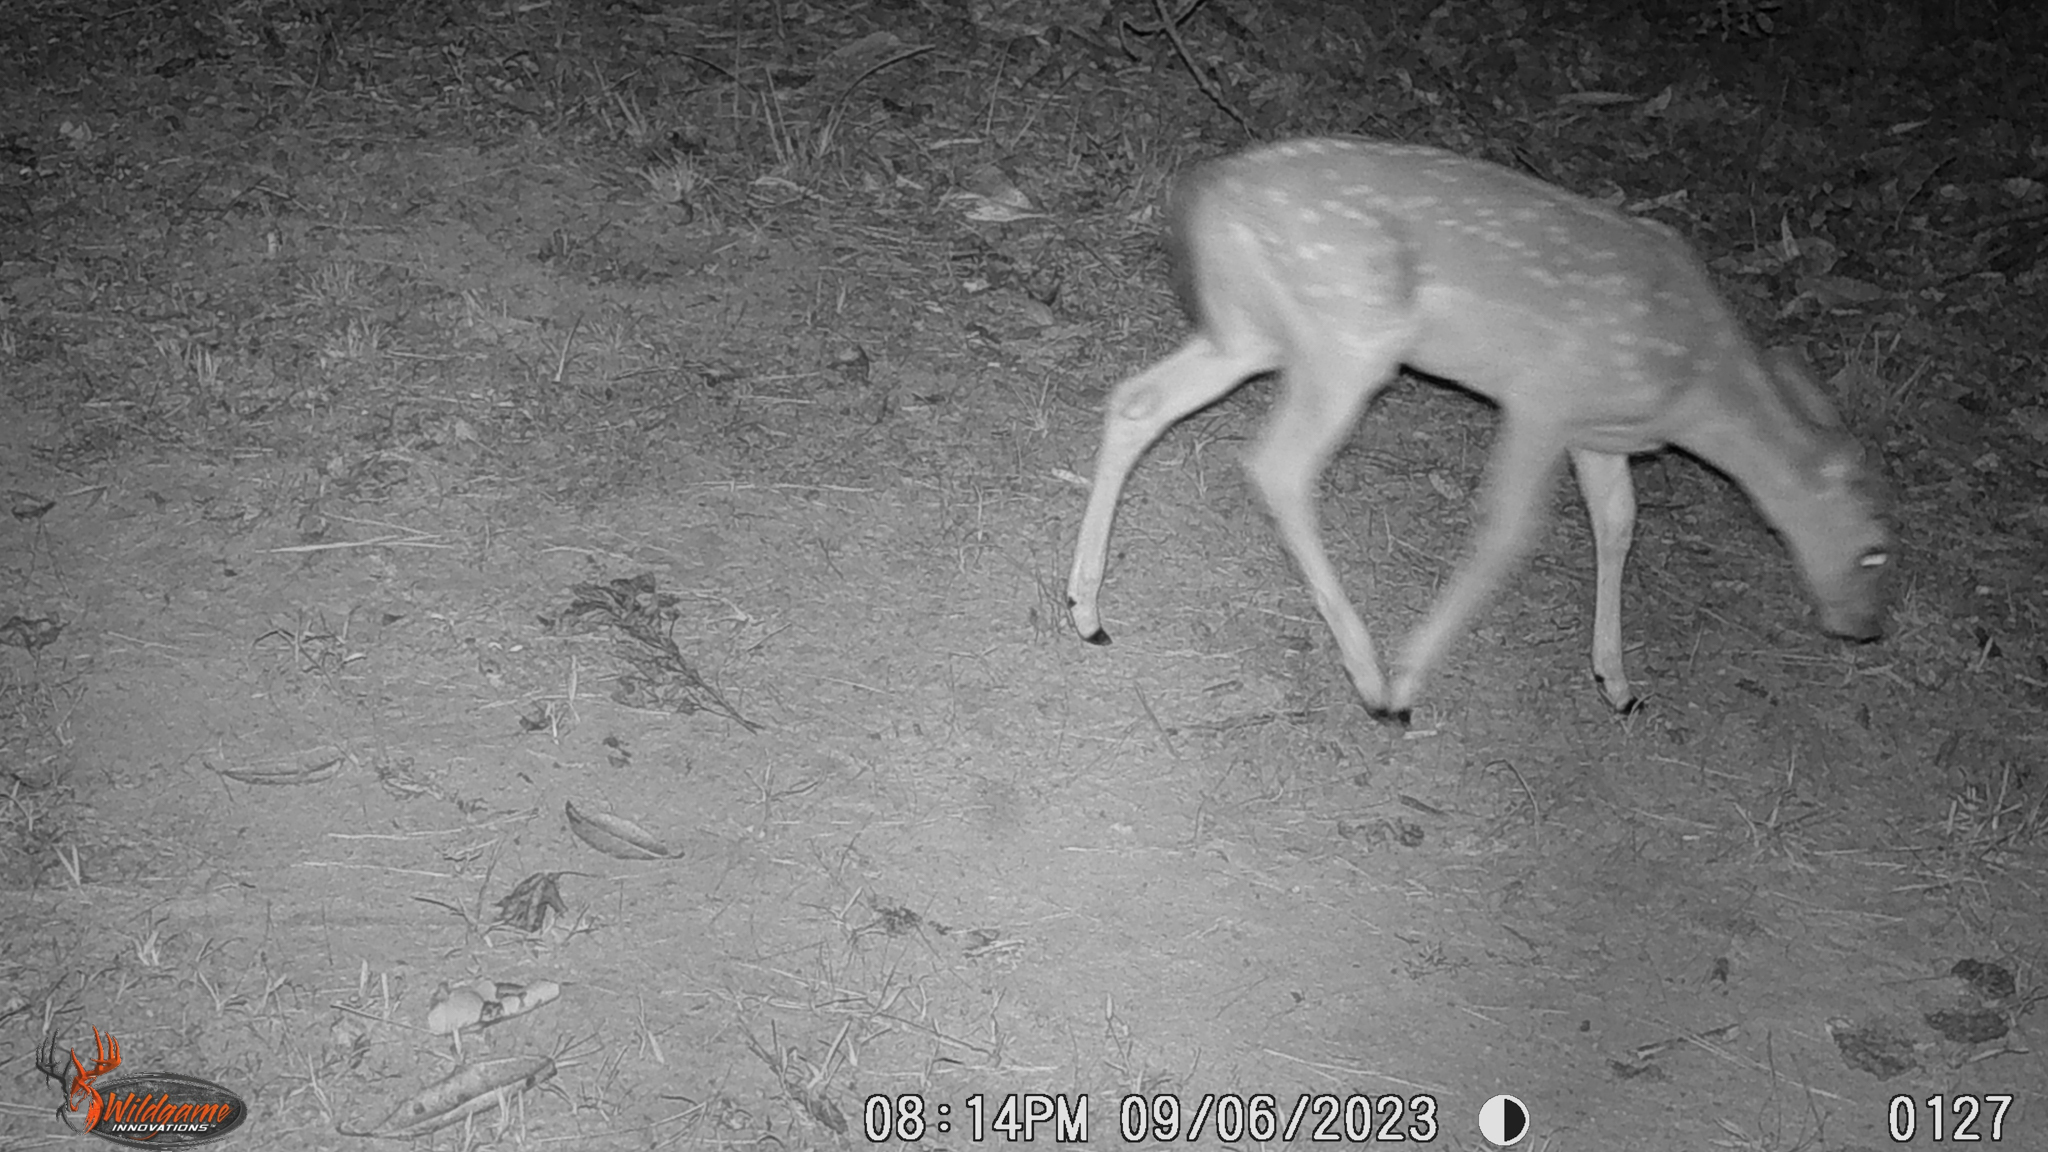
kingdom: Animalia
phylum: Chordata
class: Mammalia
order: Artiodactyla
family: Cervidae
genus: Odocoileus
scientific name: Odocoileus virginianus
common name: White-tailed deer
